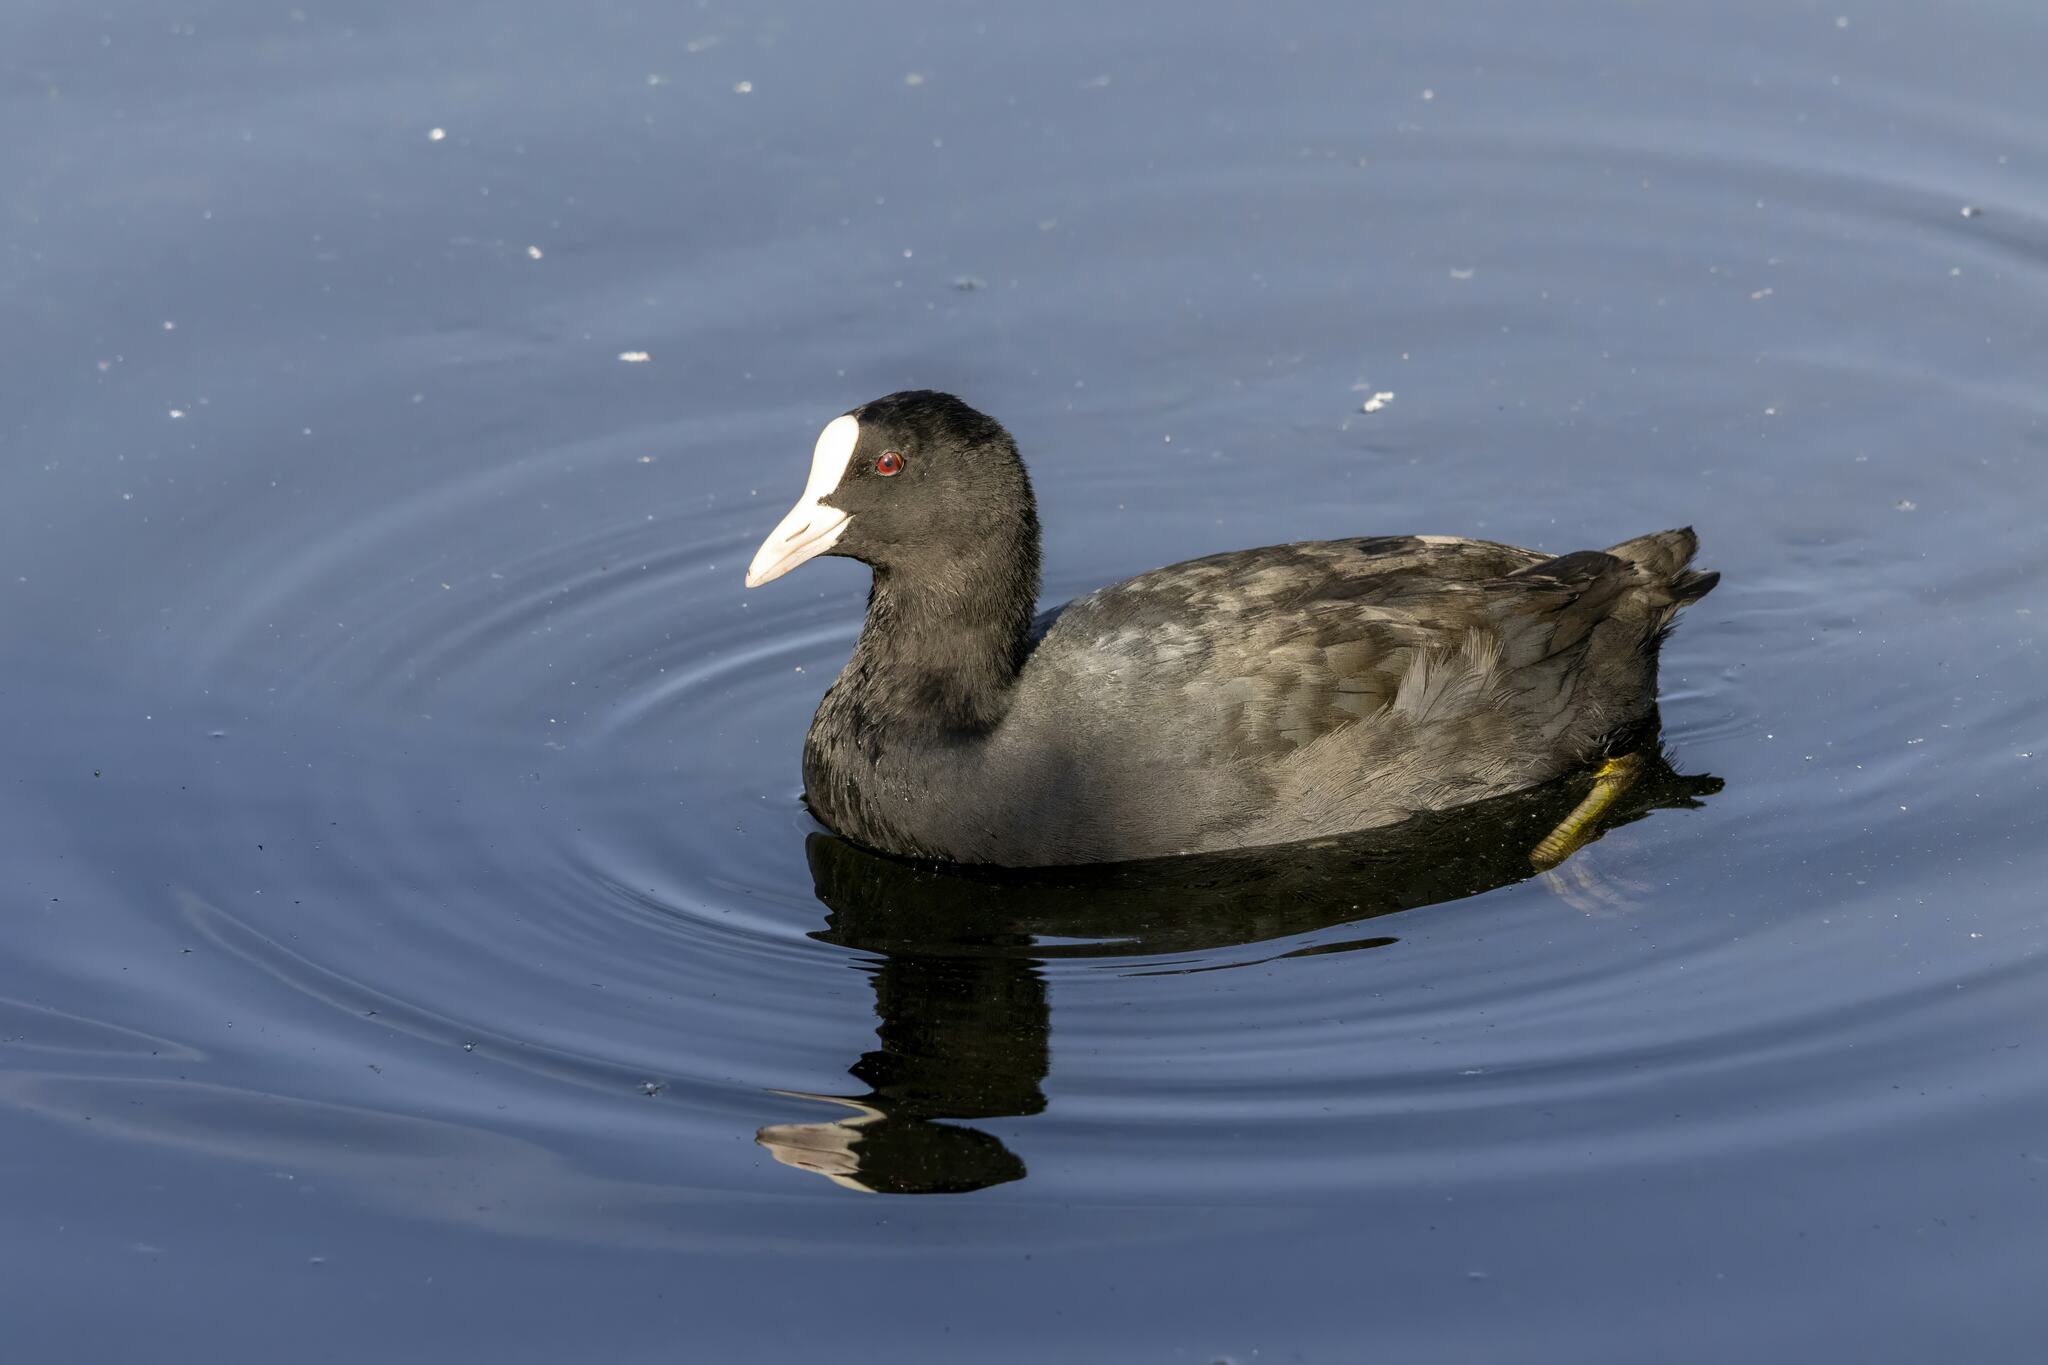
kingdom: Animalia
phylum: Chordata
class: Aves
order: Gruiformes
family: Rallidae
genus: Fulica
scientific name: Fulica atra
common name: Eurasian coot
